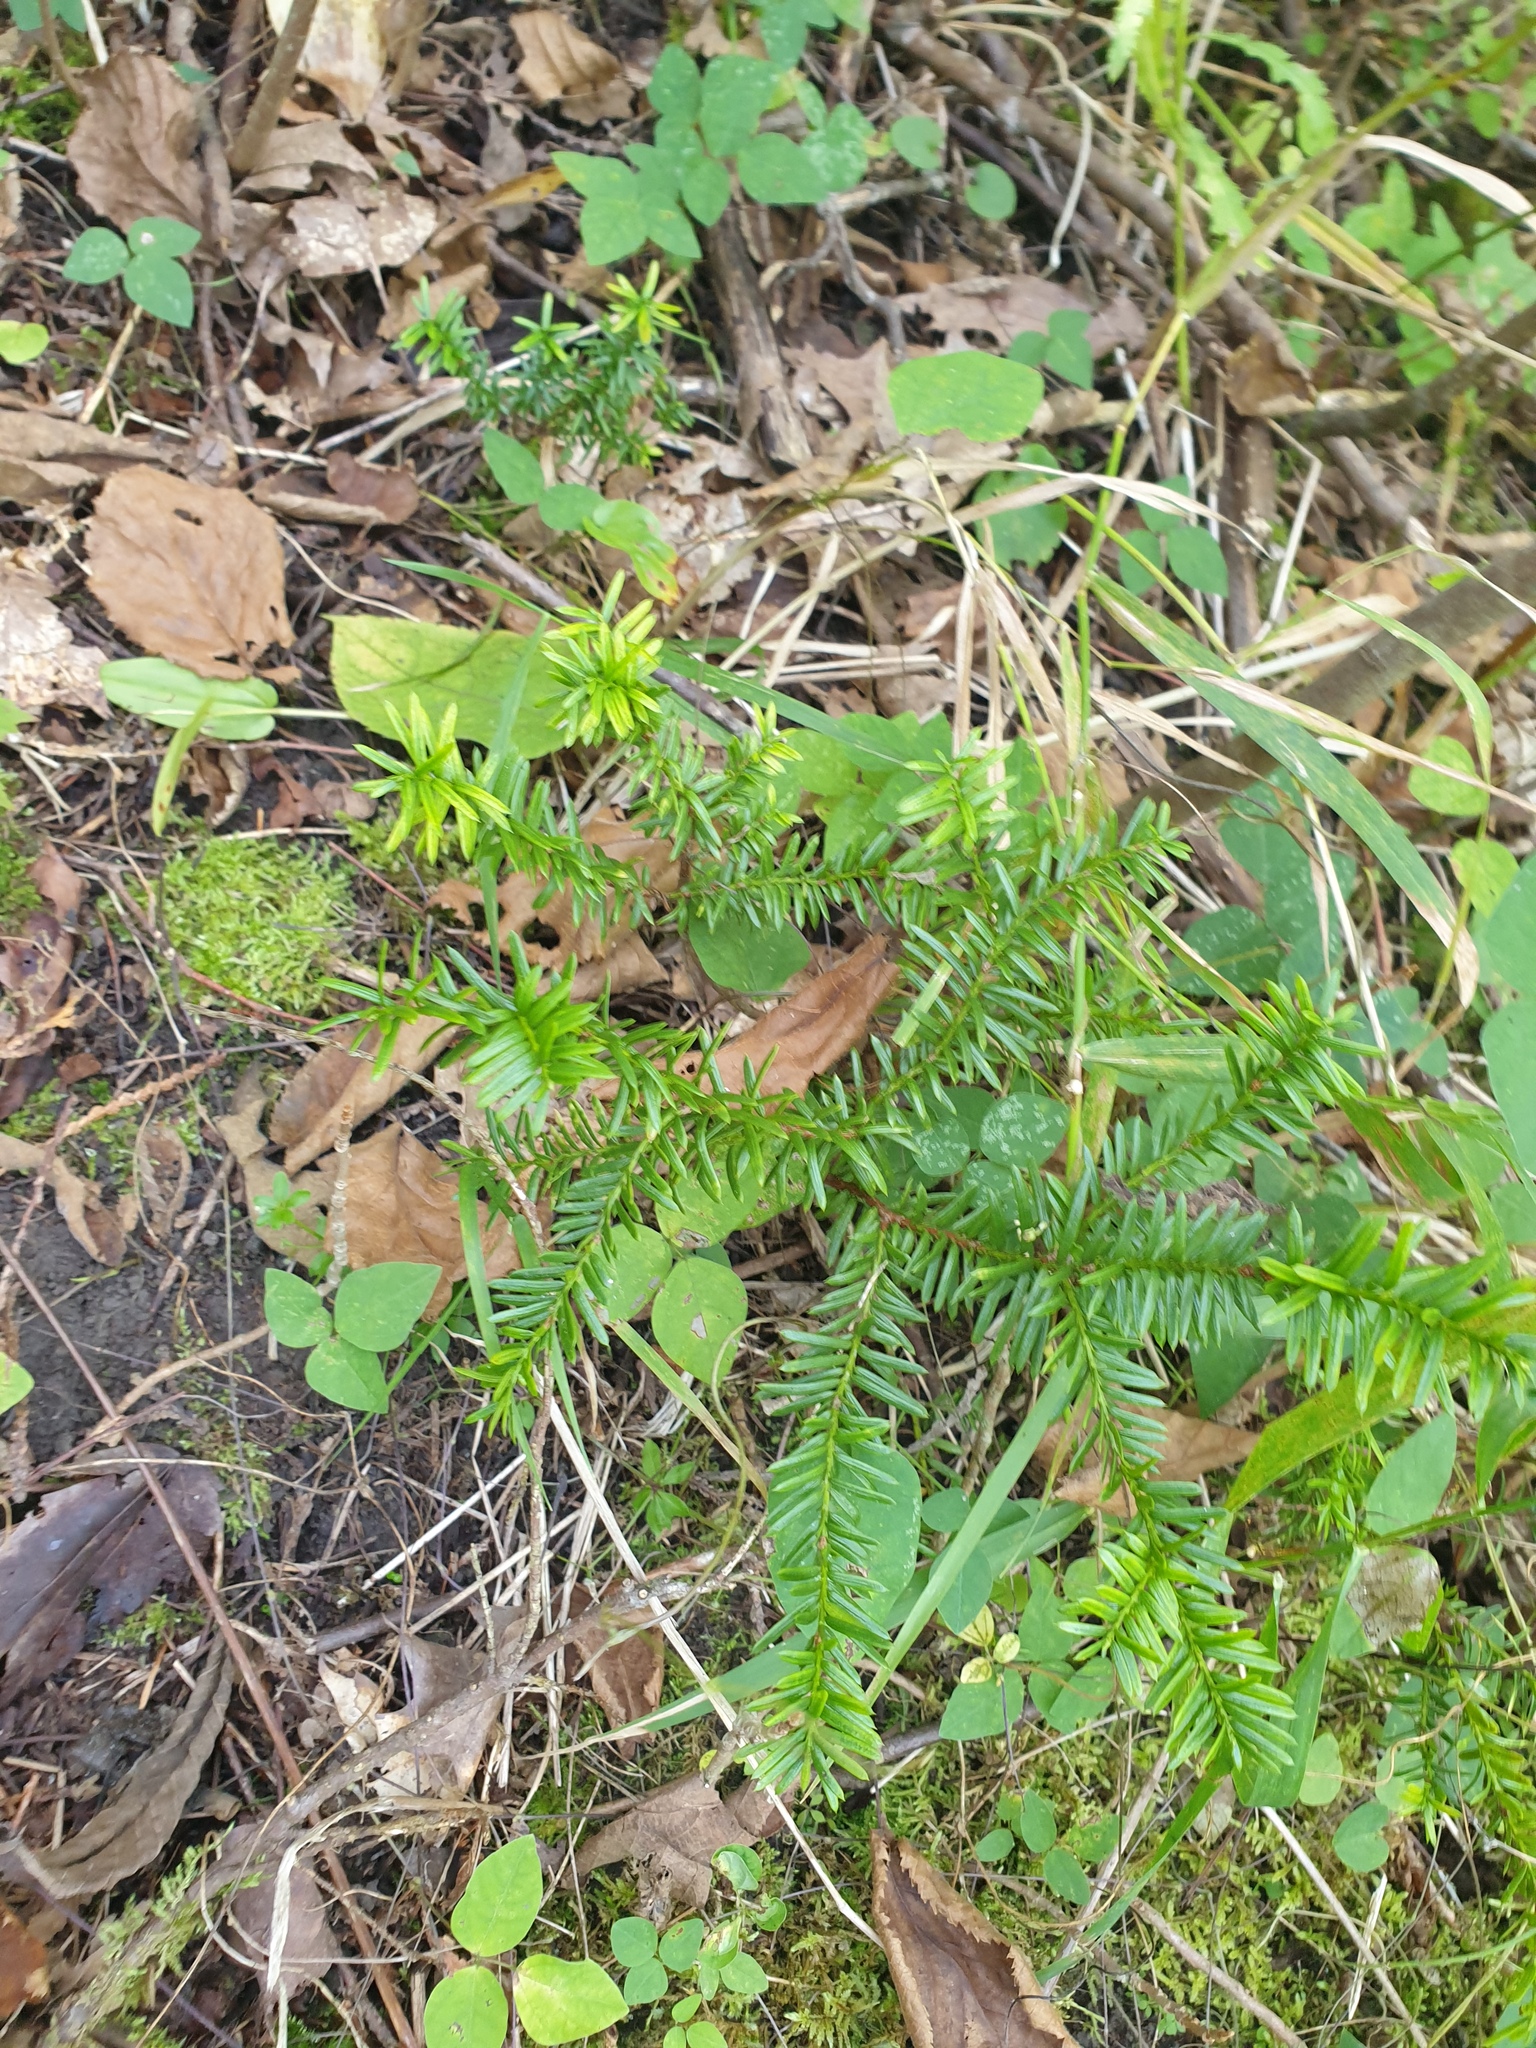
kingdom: Plantae
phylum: Tracheophyta
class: Pinopsida
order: Pinales
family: Taxaceae
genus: Taxus
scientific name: Taxus canadensis
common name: American yew
